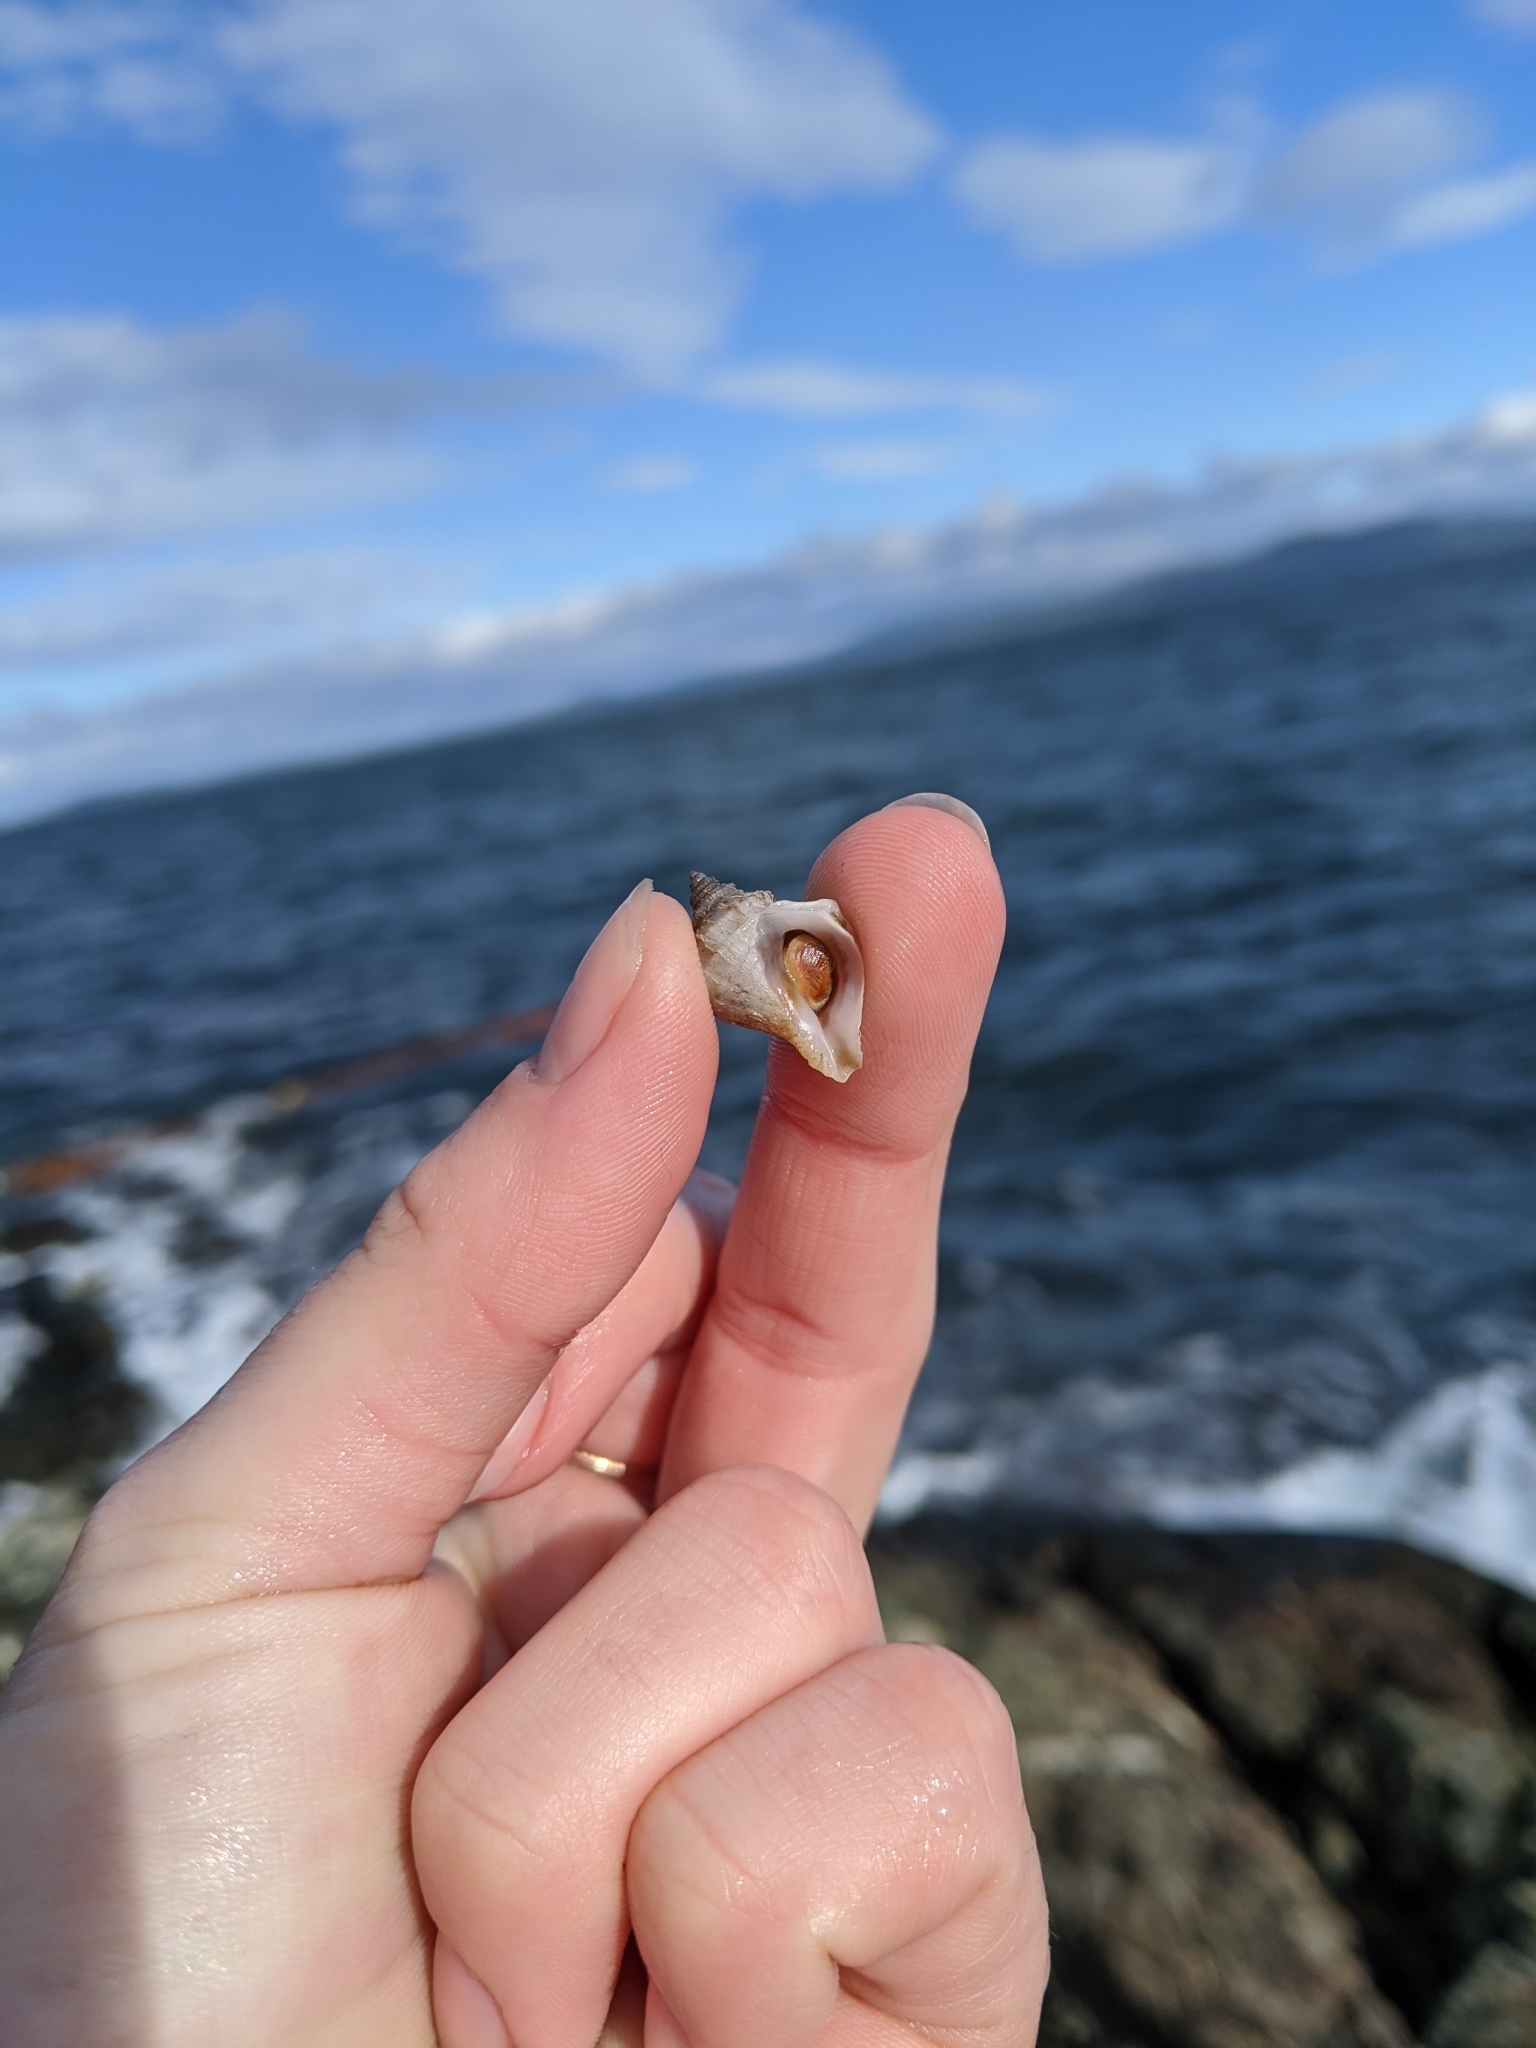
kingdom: Animalia
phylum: Mollusca
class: Gastropoda
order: Neogastropoda
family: Muricidae
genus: Nucella
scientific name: Nucella lamellosa
